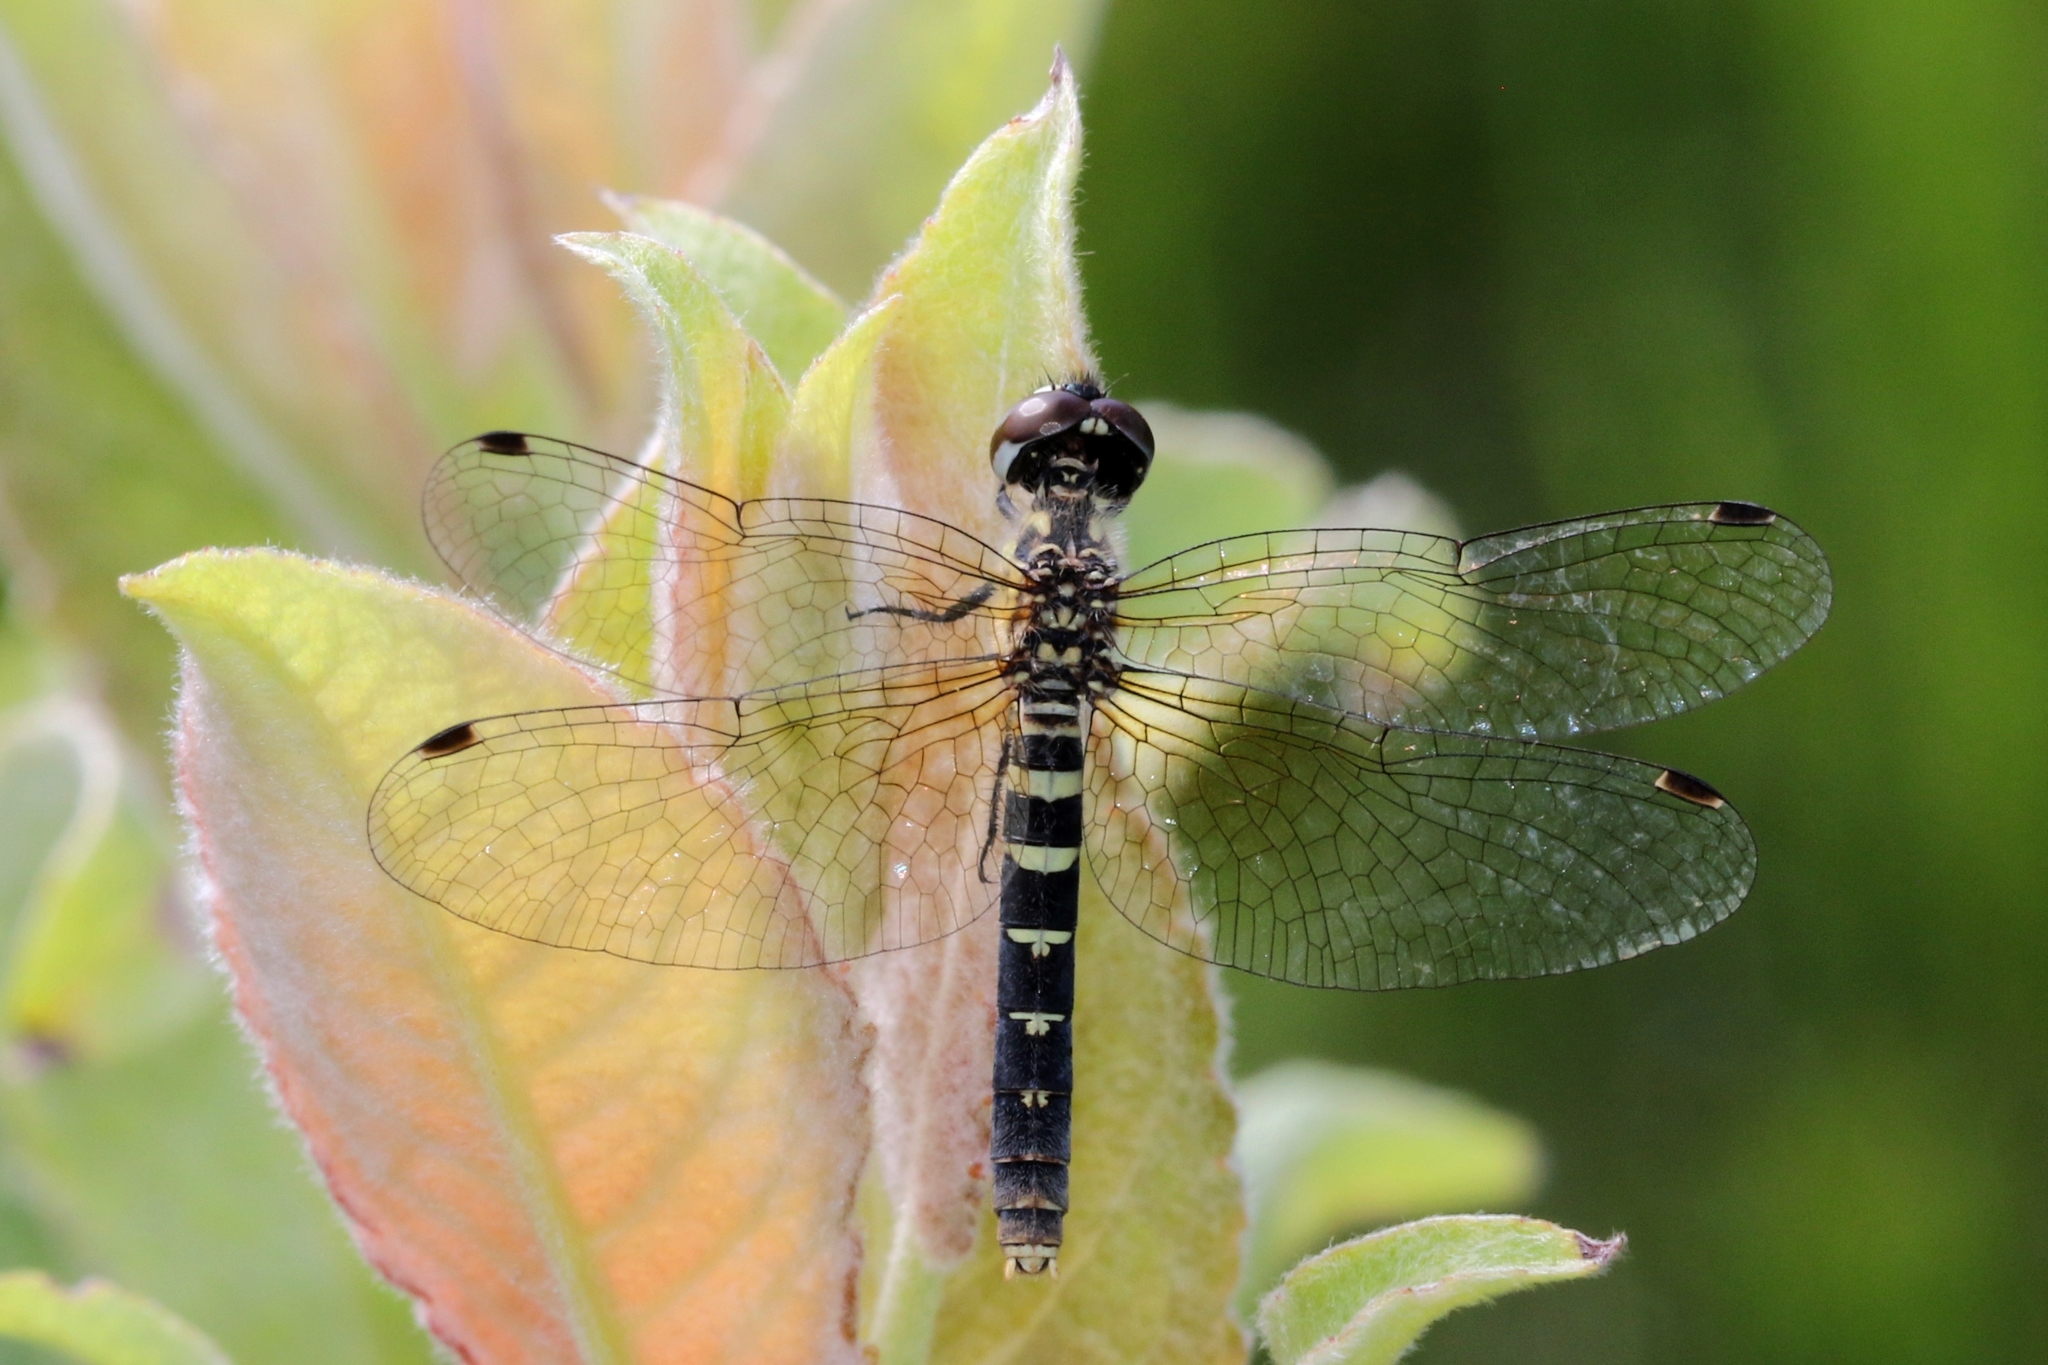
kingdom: Animalia
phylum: Arthropoda
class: Insecta
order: Odonata
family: Libellulidae
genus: Nannothemis
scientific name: Nannothemis bella
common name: Elfin skimmer
